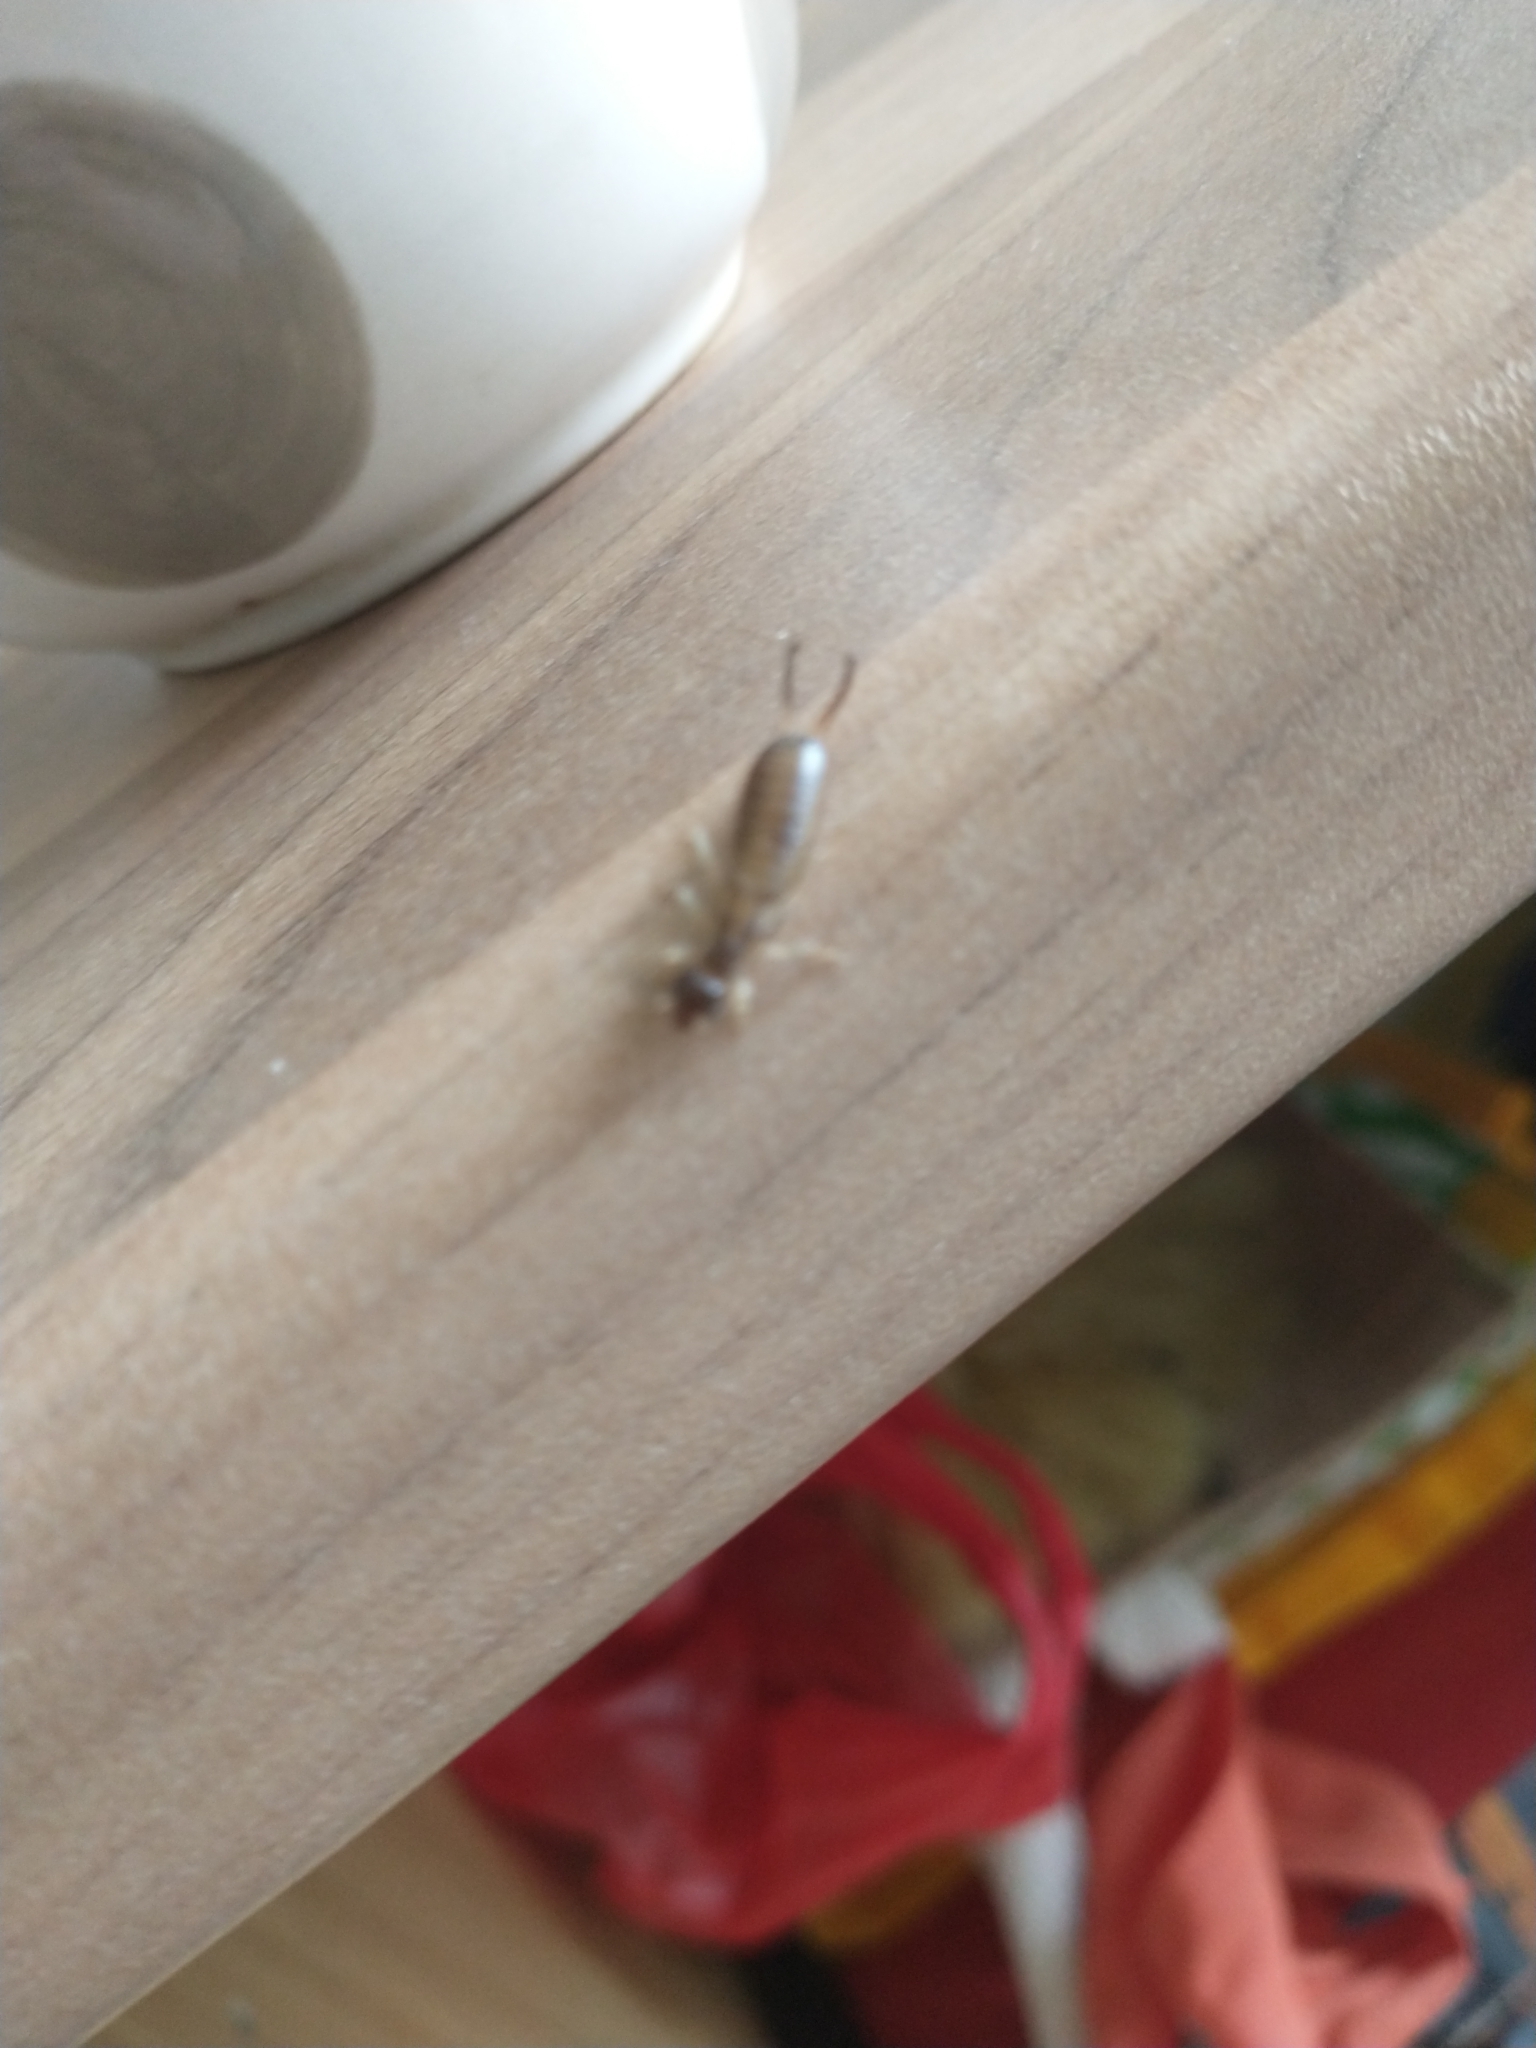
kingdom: Animalia
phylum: Arthropoda
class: Insecta
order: Dermaptera
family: Forficulidae
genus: Forficula
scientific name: Forficula
